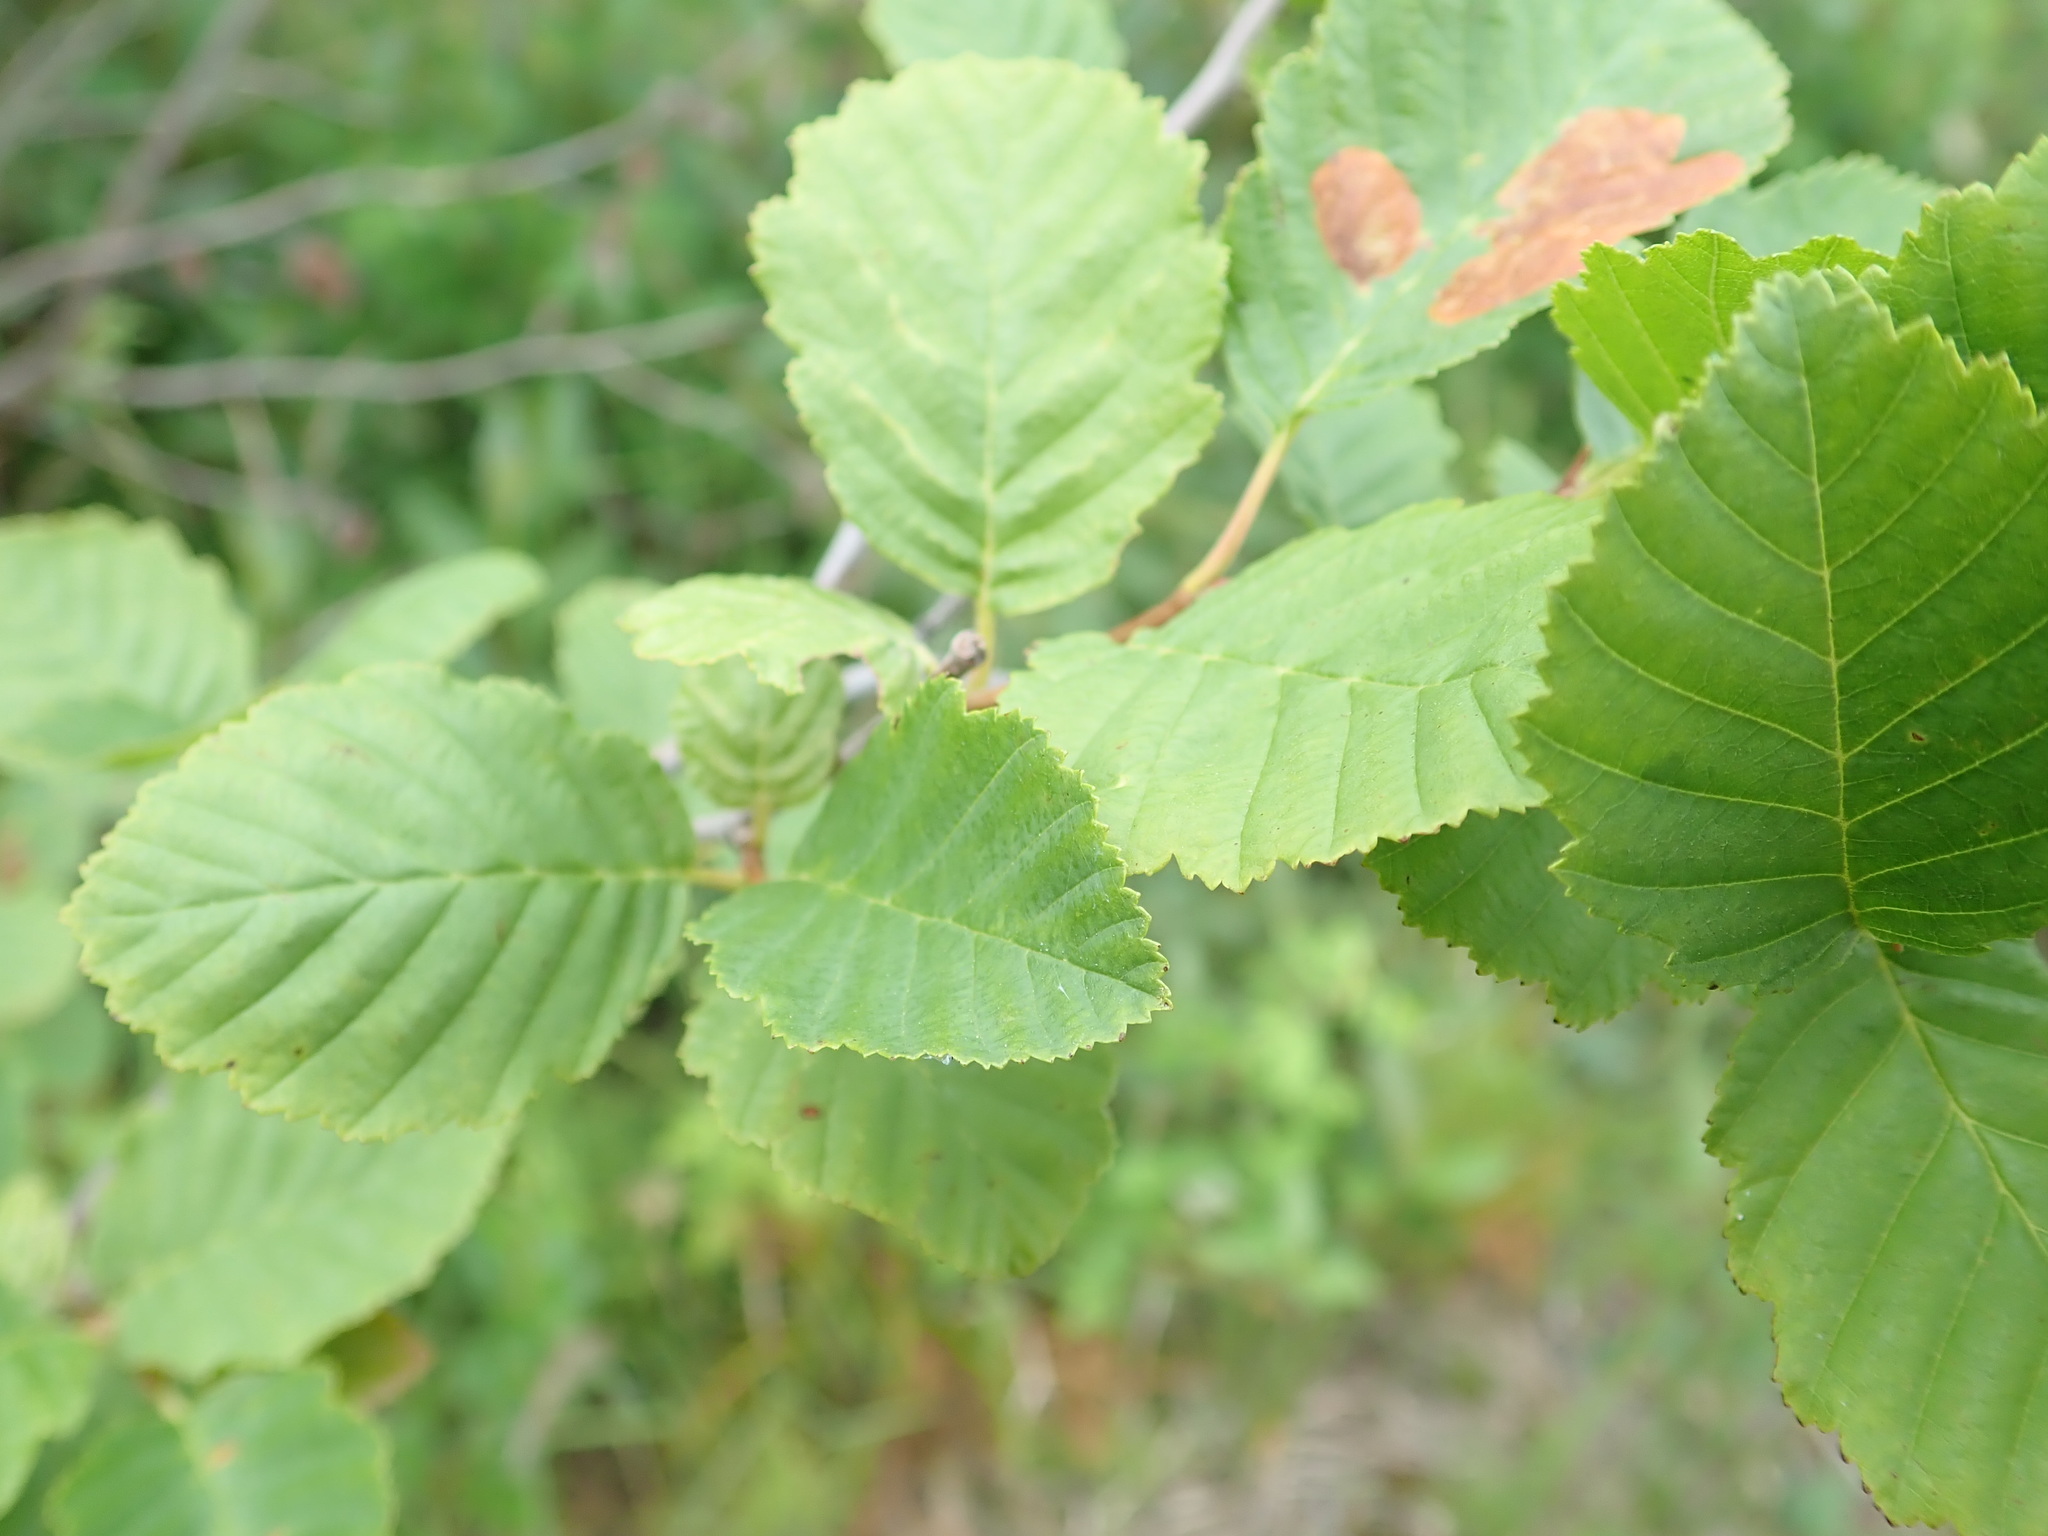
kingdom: Plantae
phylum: Tracheophyta
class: Magnoliopsida
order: Fagales
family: Betulaceae
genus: Alnus
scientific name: Alnus incana
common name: Grey alder
